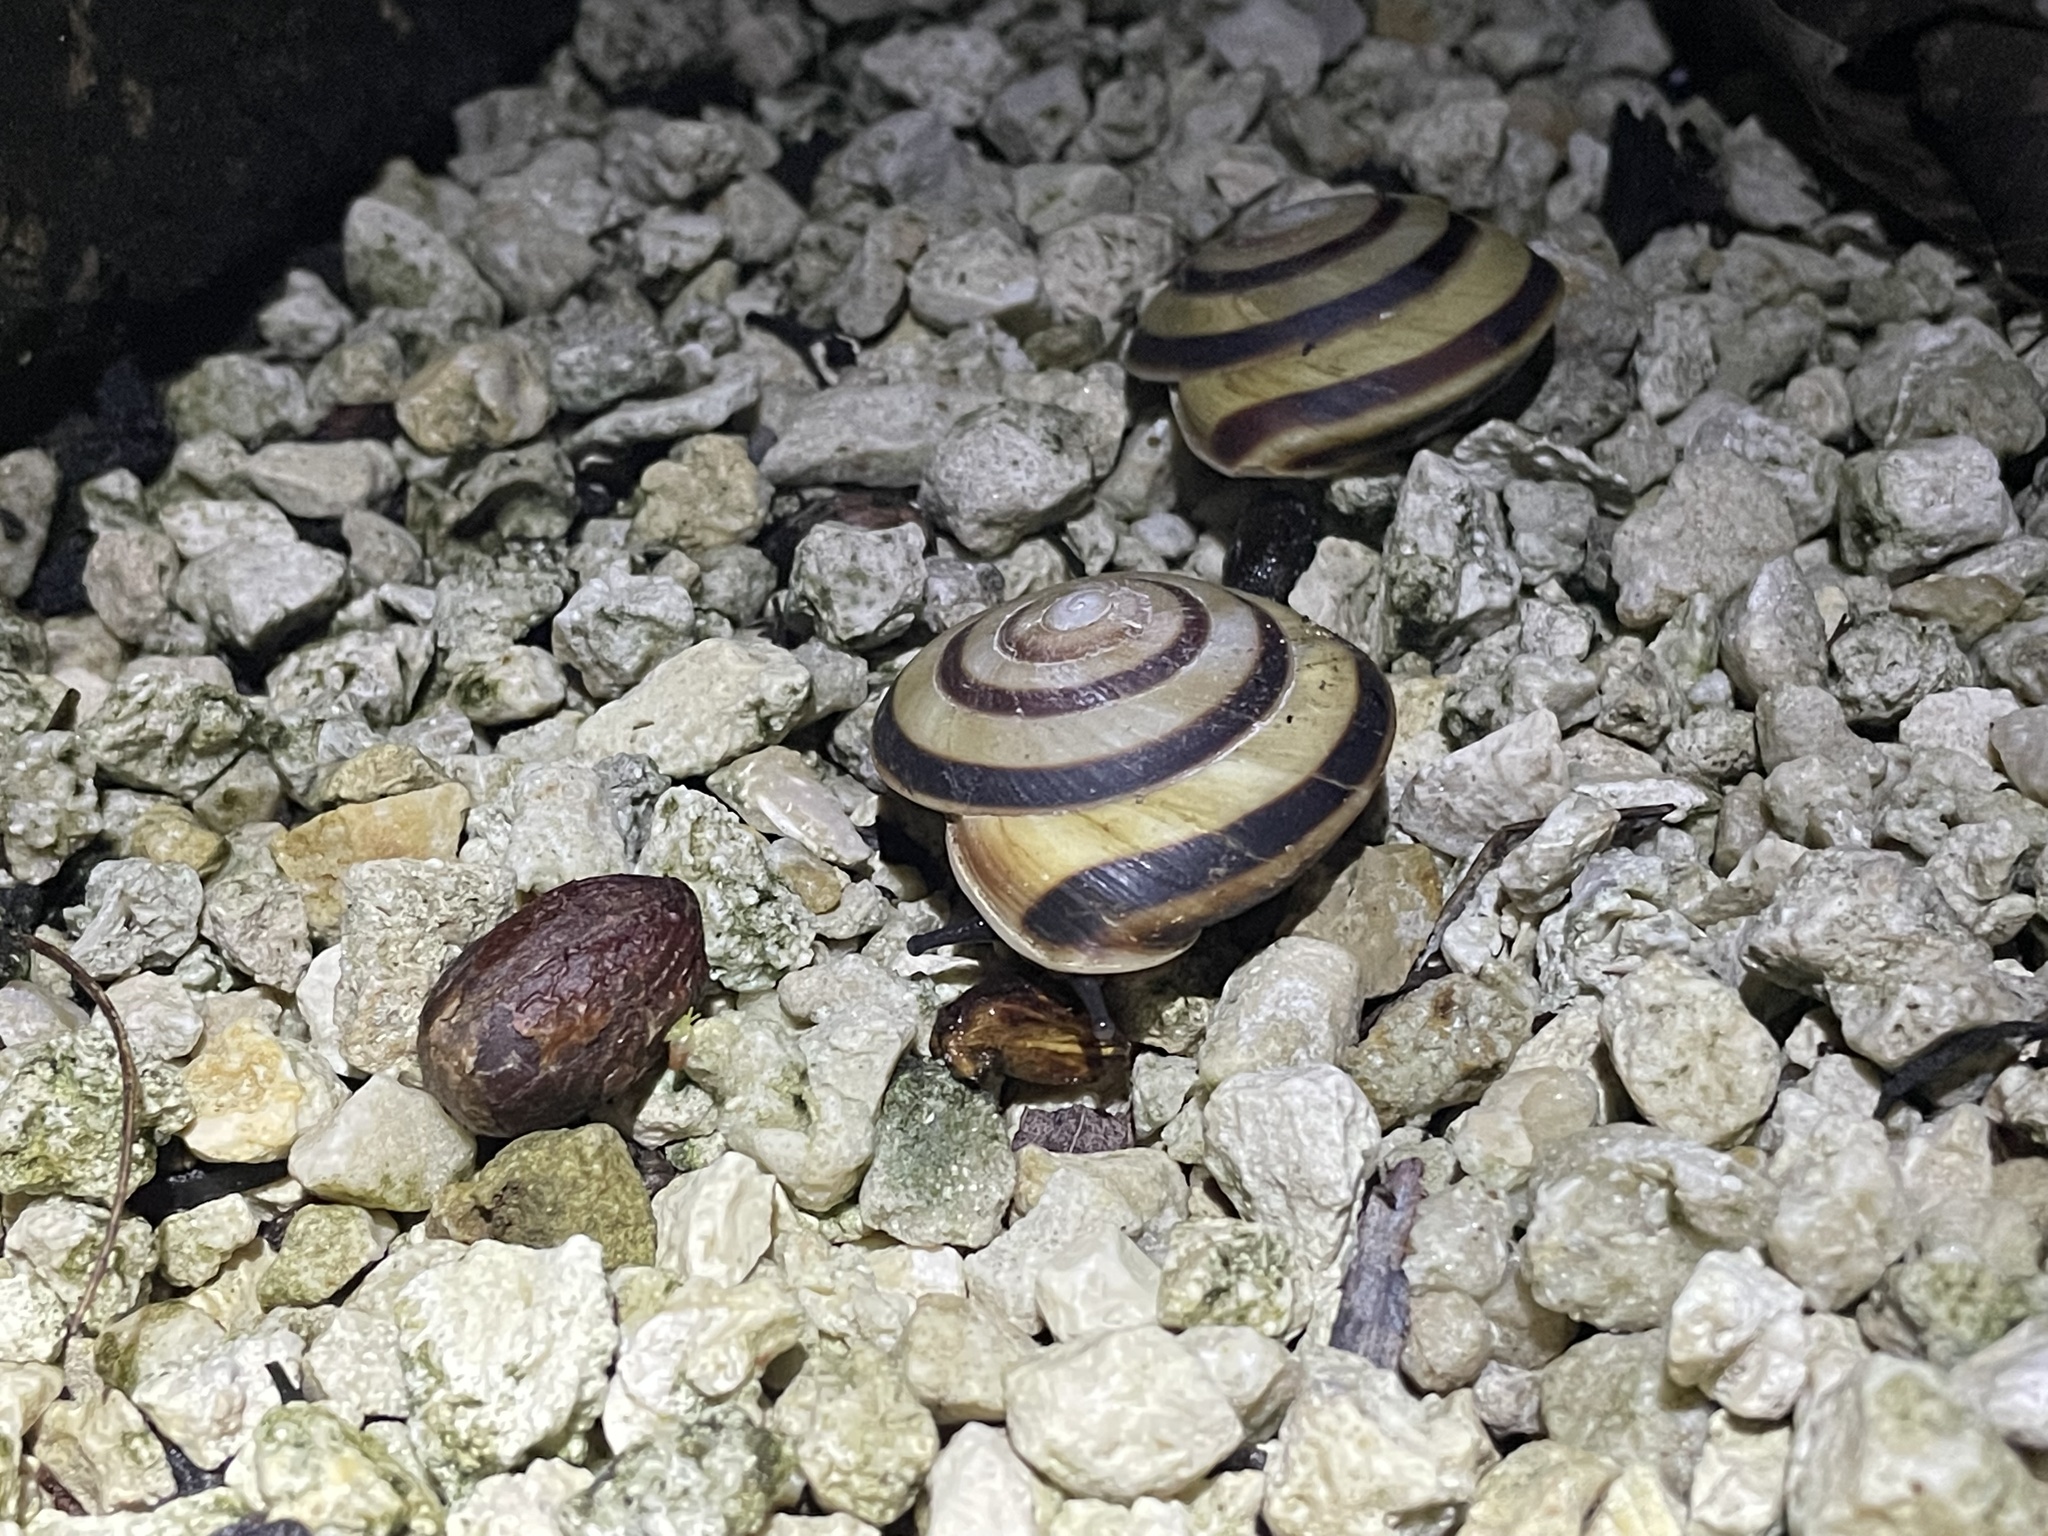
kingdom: Animalia
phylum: Mollusca
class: Gastropoda
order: Stylommatophora
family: Solaropsidae
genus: Caracolus
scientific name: Caracolus marginella
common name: Banded caracol
